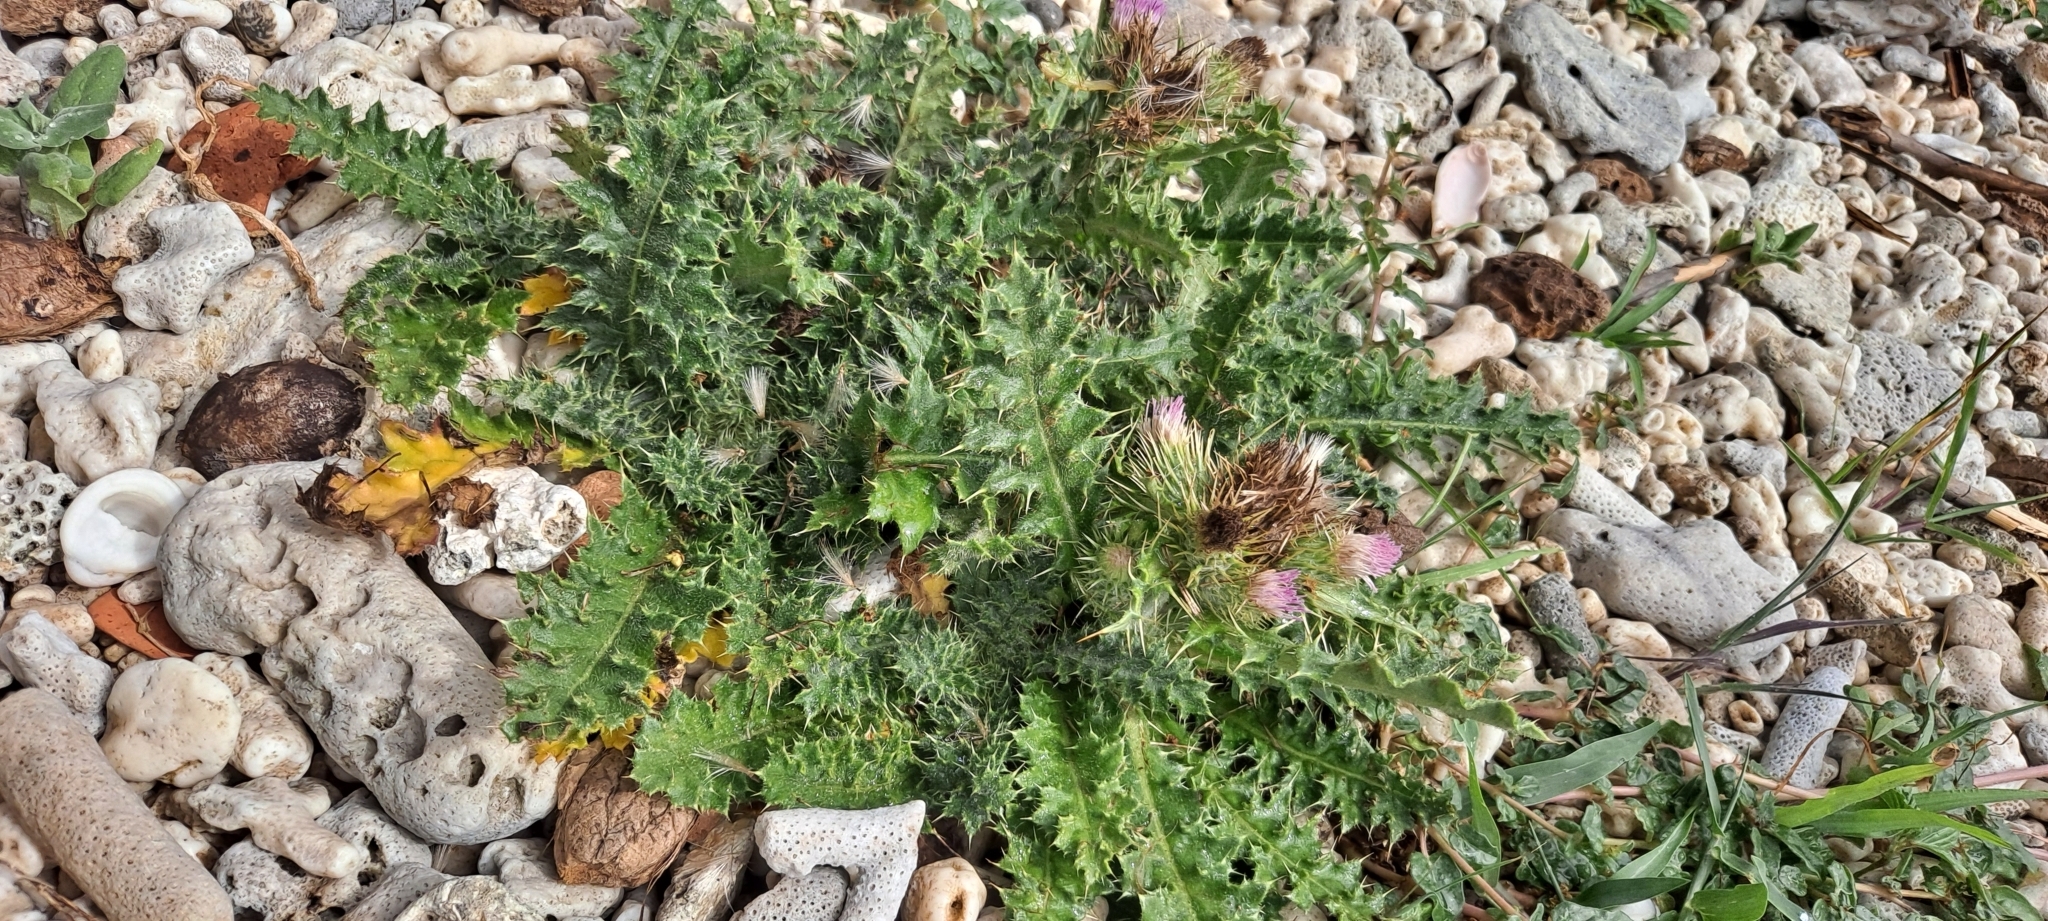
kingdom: Plantae
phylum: Tracheophyta
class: Magnoliopsida
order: Asterales
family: Asteraceae
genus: Cirsium
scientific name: Cirsium japonicum
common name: Japanese thistle
